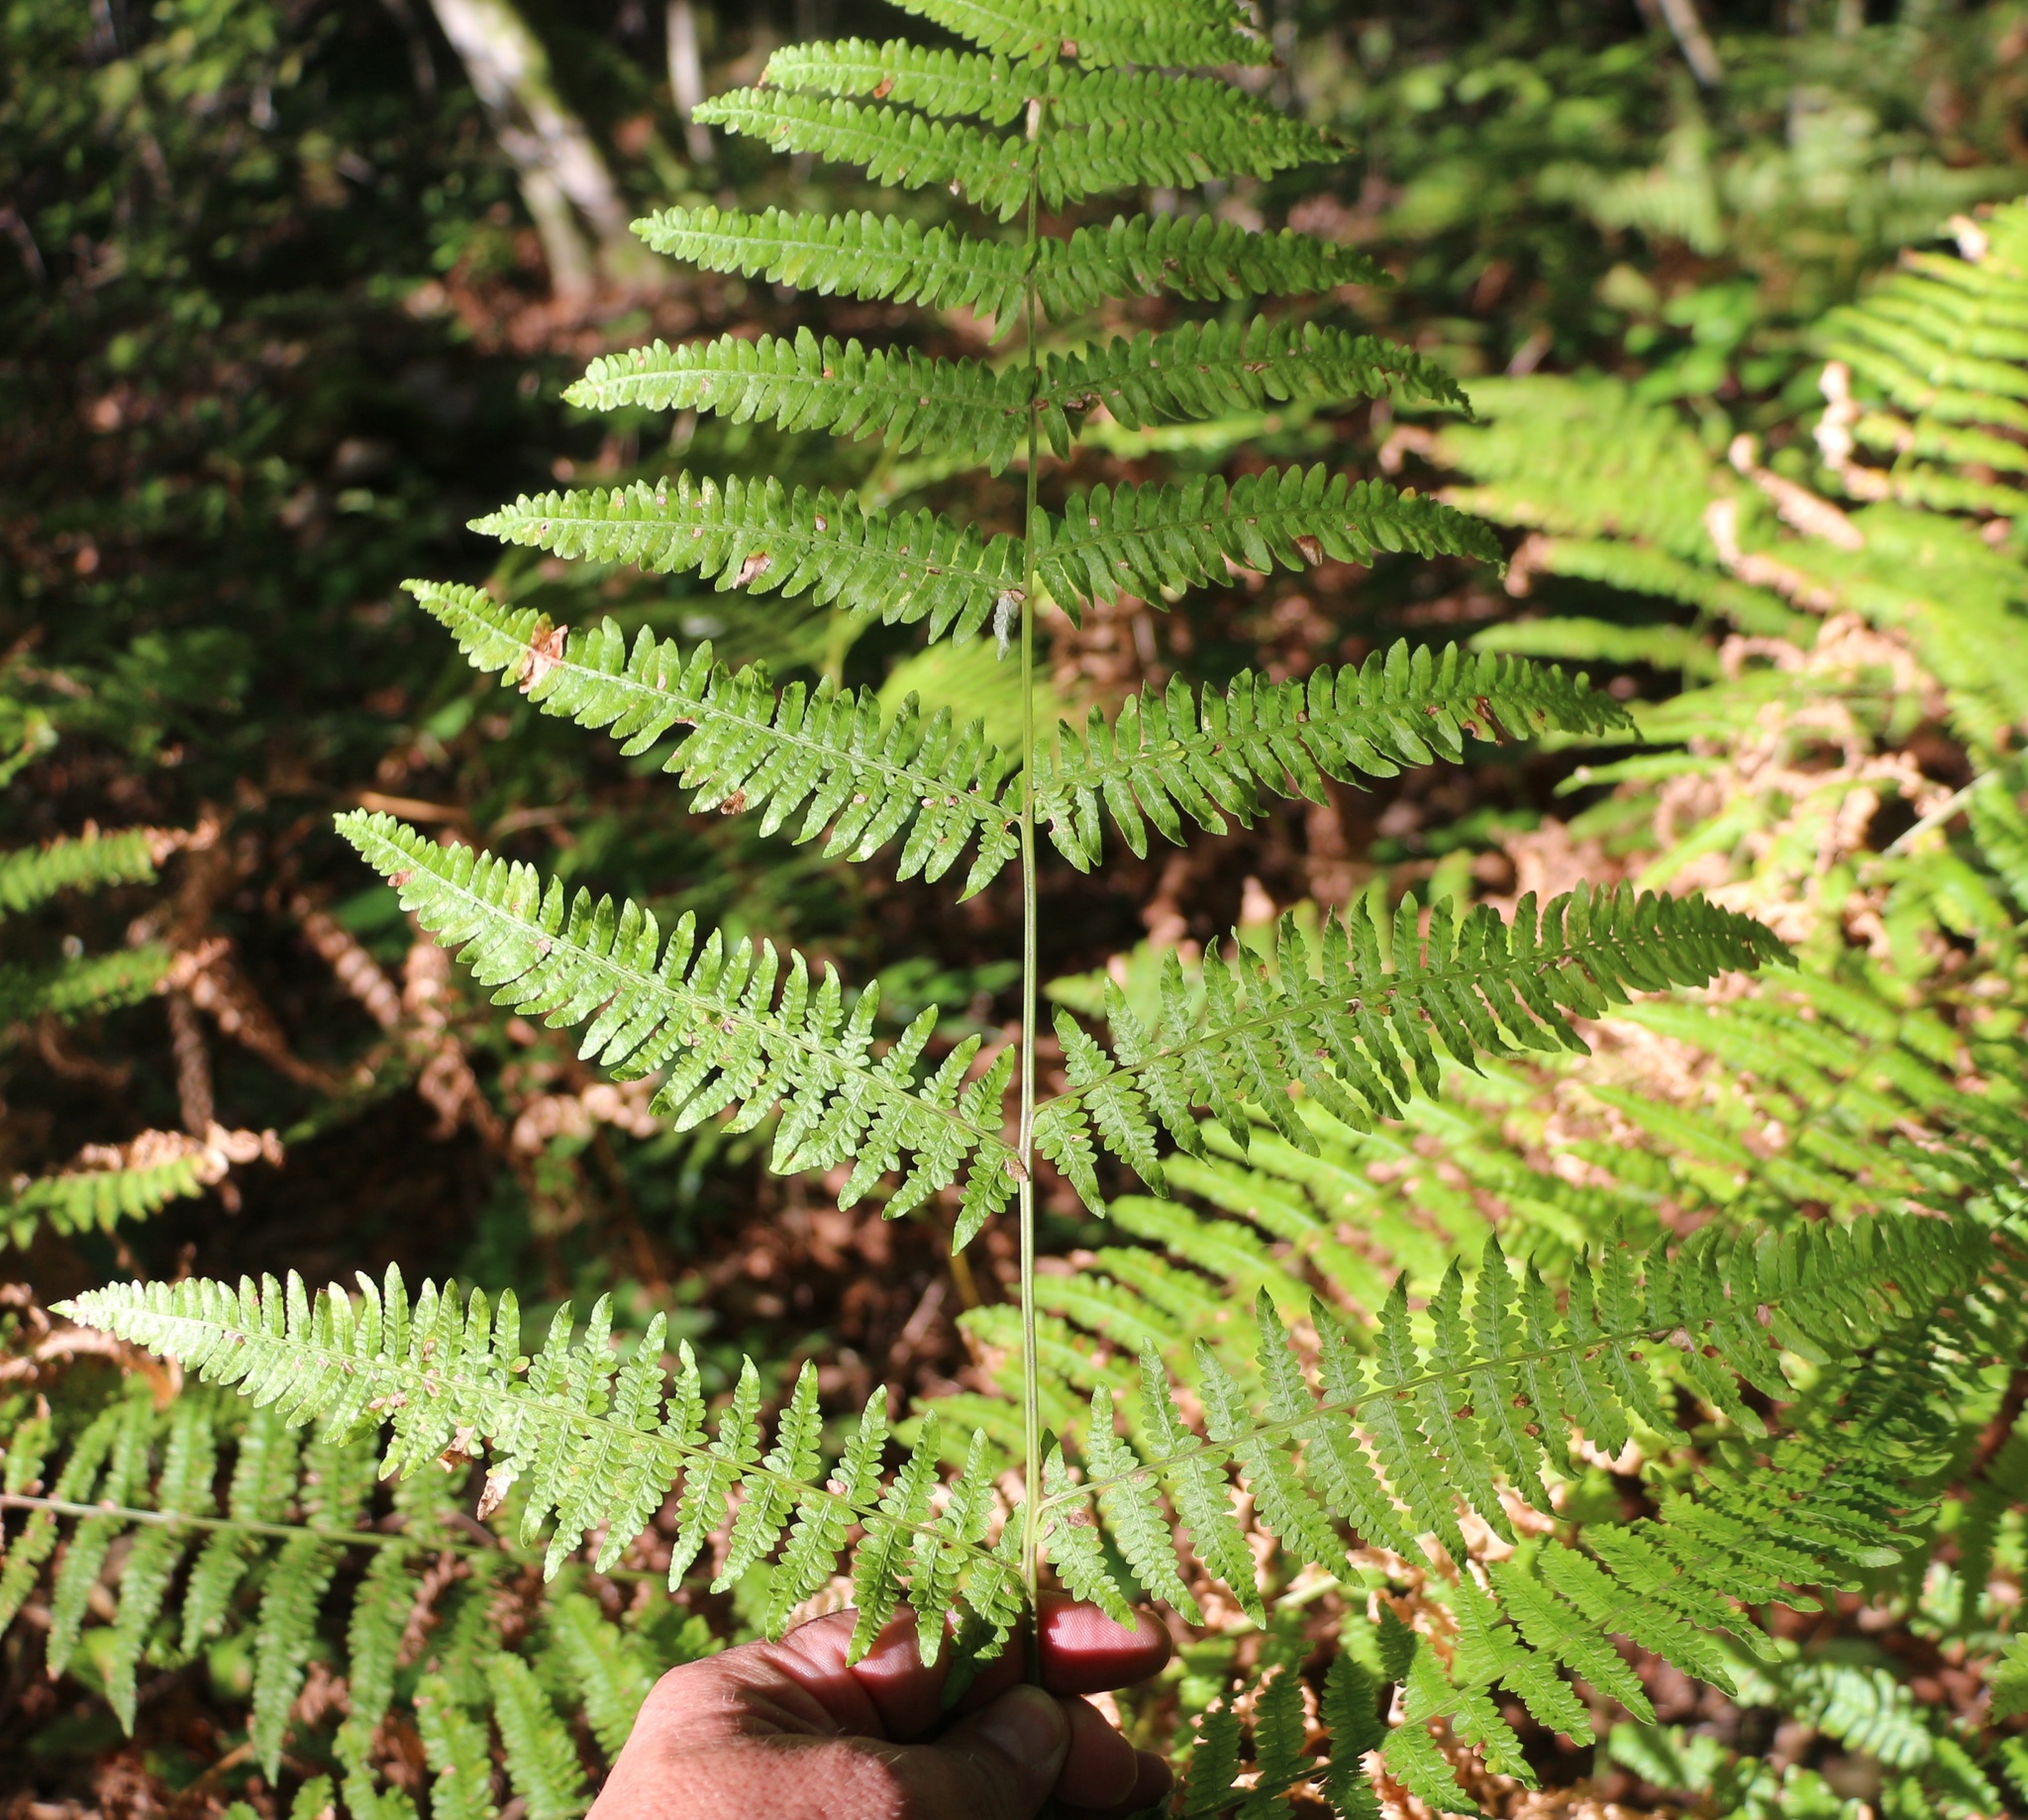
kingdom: Plantae
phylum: Tracheophyta
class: Polypodiopsida
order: Polypodiales
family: Dennstaedtiaceae
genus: Pteridium
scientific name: Pteridium tauricum
